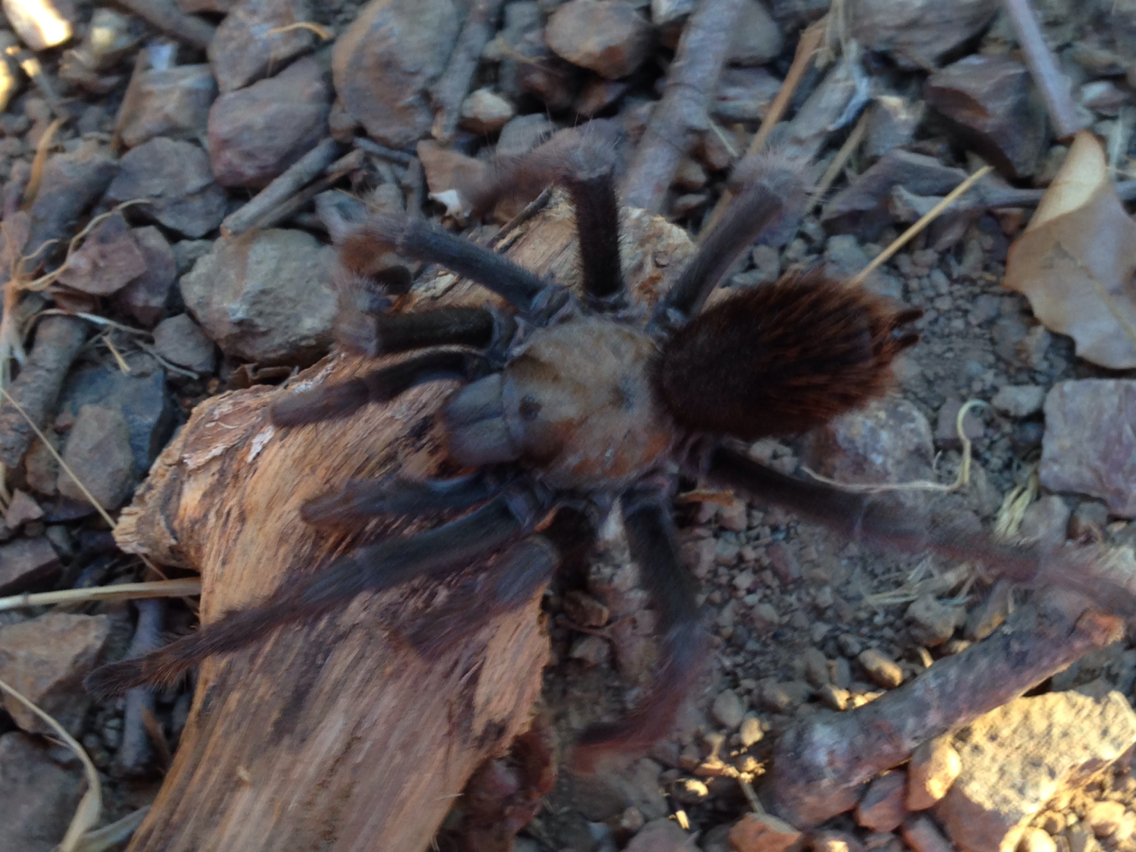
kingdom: Animalia
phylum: Arthropoda
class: Arachnida
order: Araneae
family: Theraphosidae
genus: Aphonopelma
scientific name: Aphonopelma iodius
